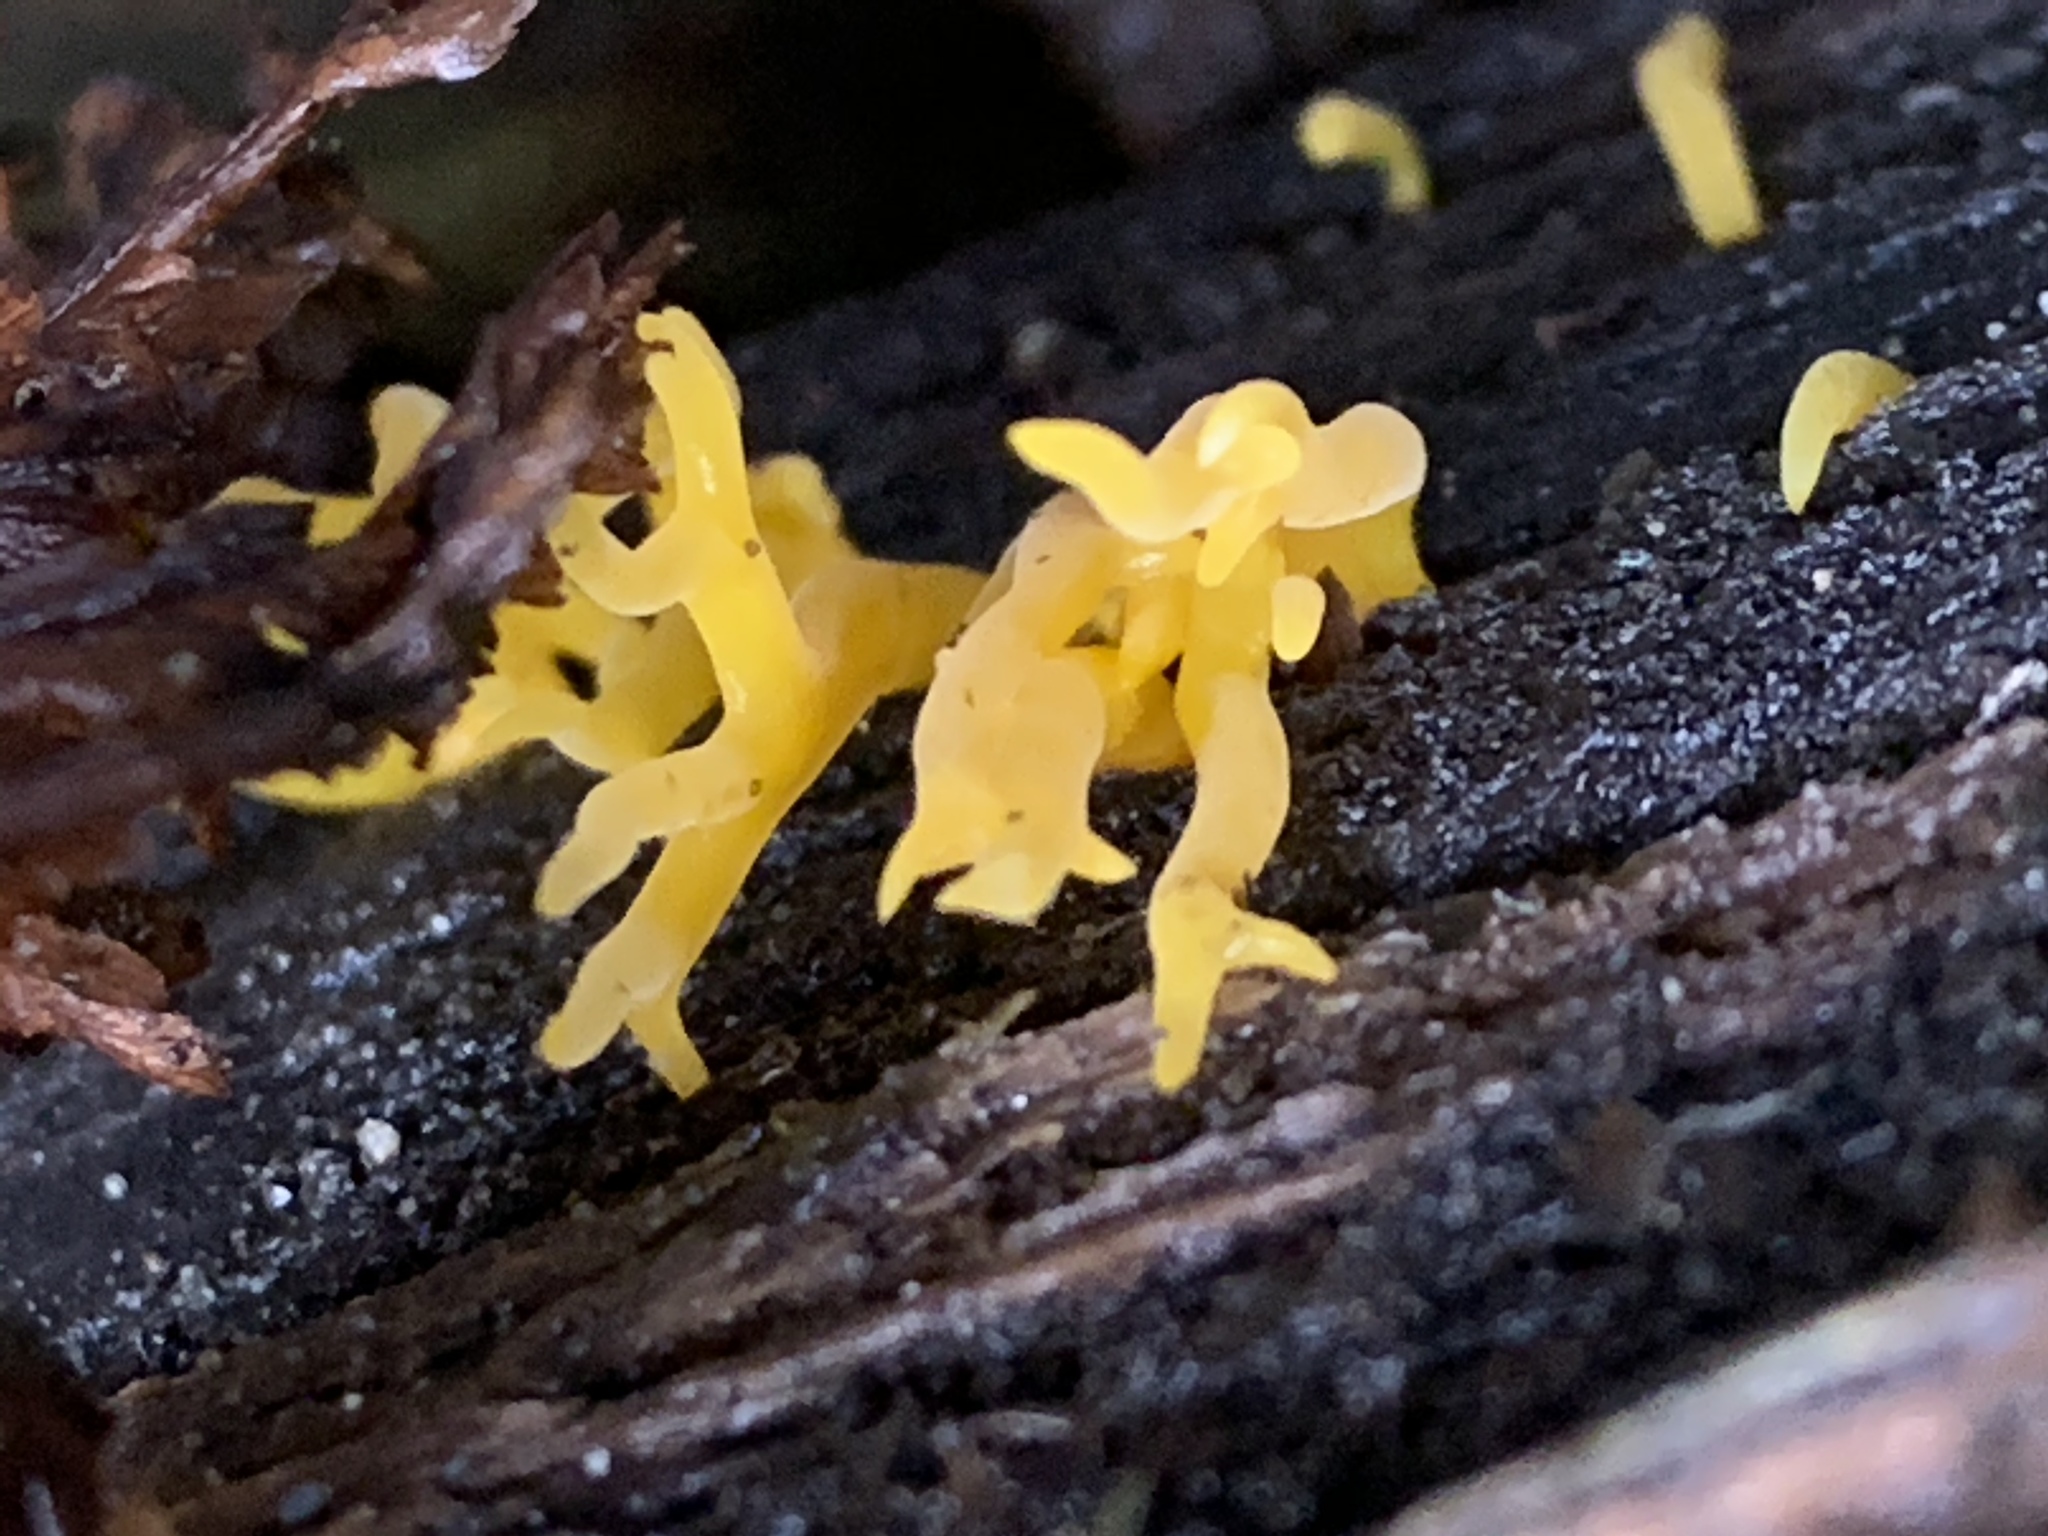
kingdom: Fungi
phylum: Basidiomycota
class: Dacrymycetes
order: Dacrymycetales
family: Dacrymycetaceae
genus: Calocera
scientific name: Calocera viscosa
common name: Yellow stagshorn
